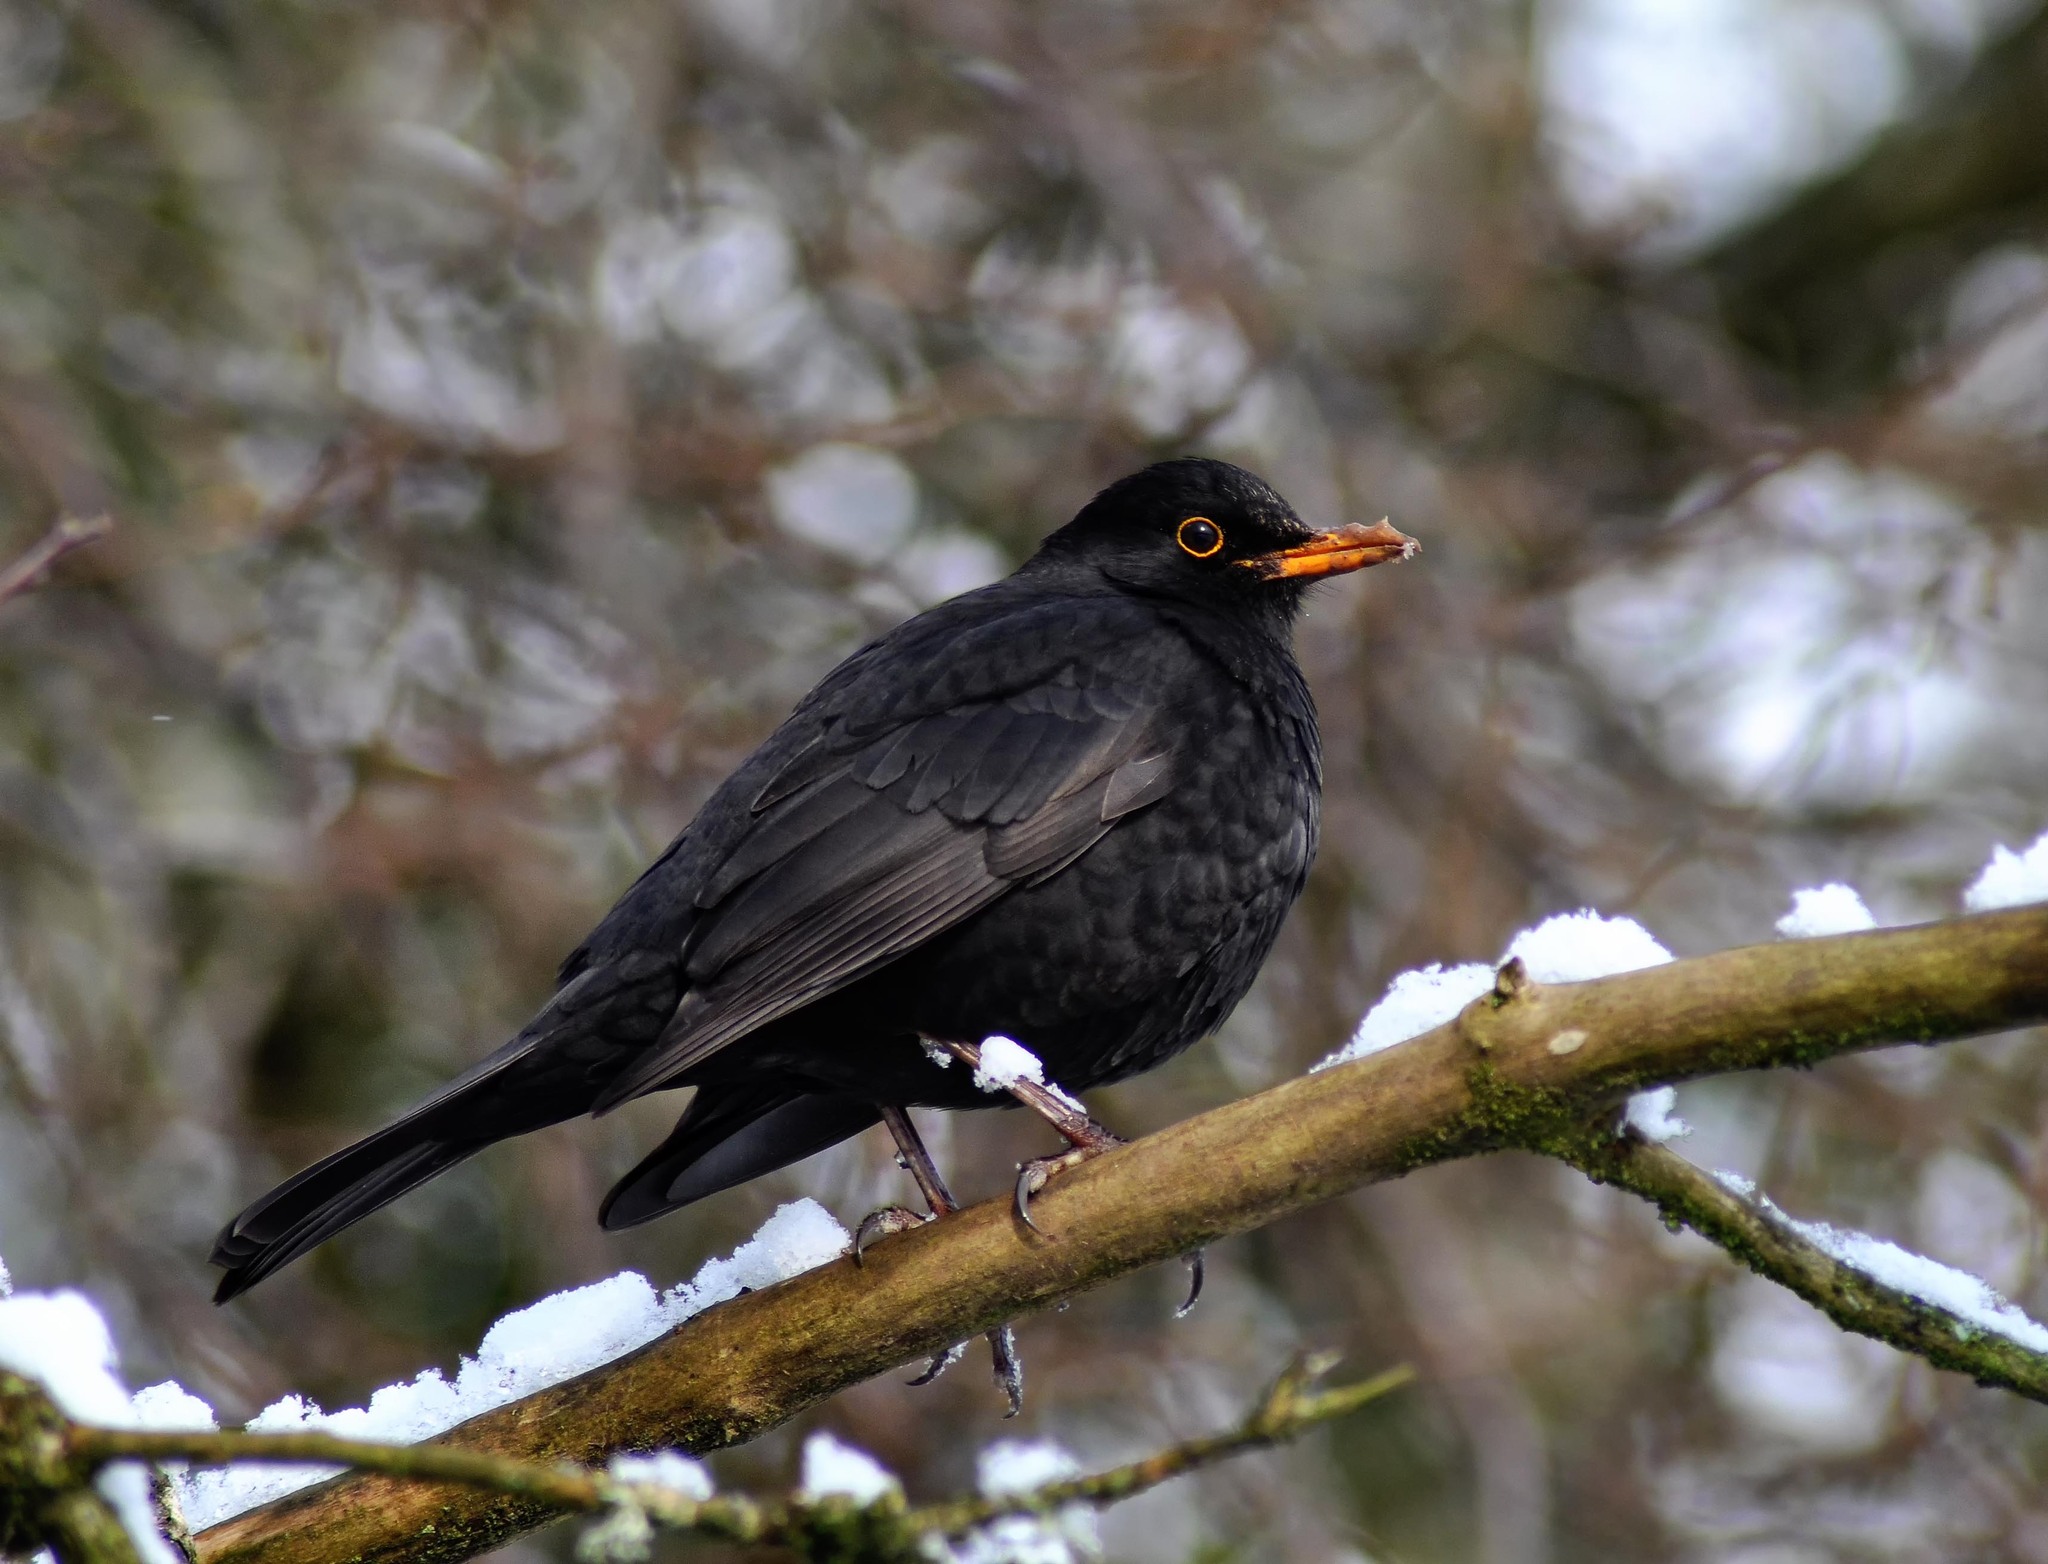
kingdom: Animalia
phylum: Chordata
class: Aves
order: Passeriformes
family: Turdidae
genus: Turdus
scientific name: Turdus merula
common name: Common blackbird
